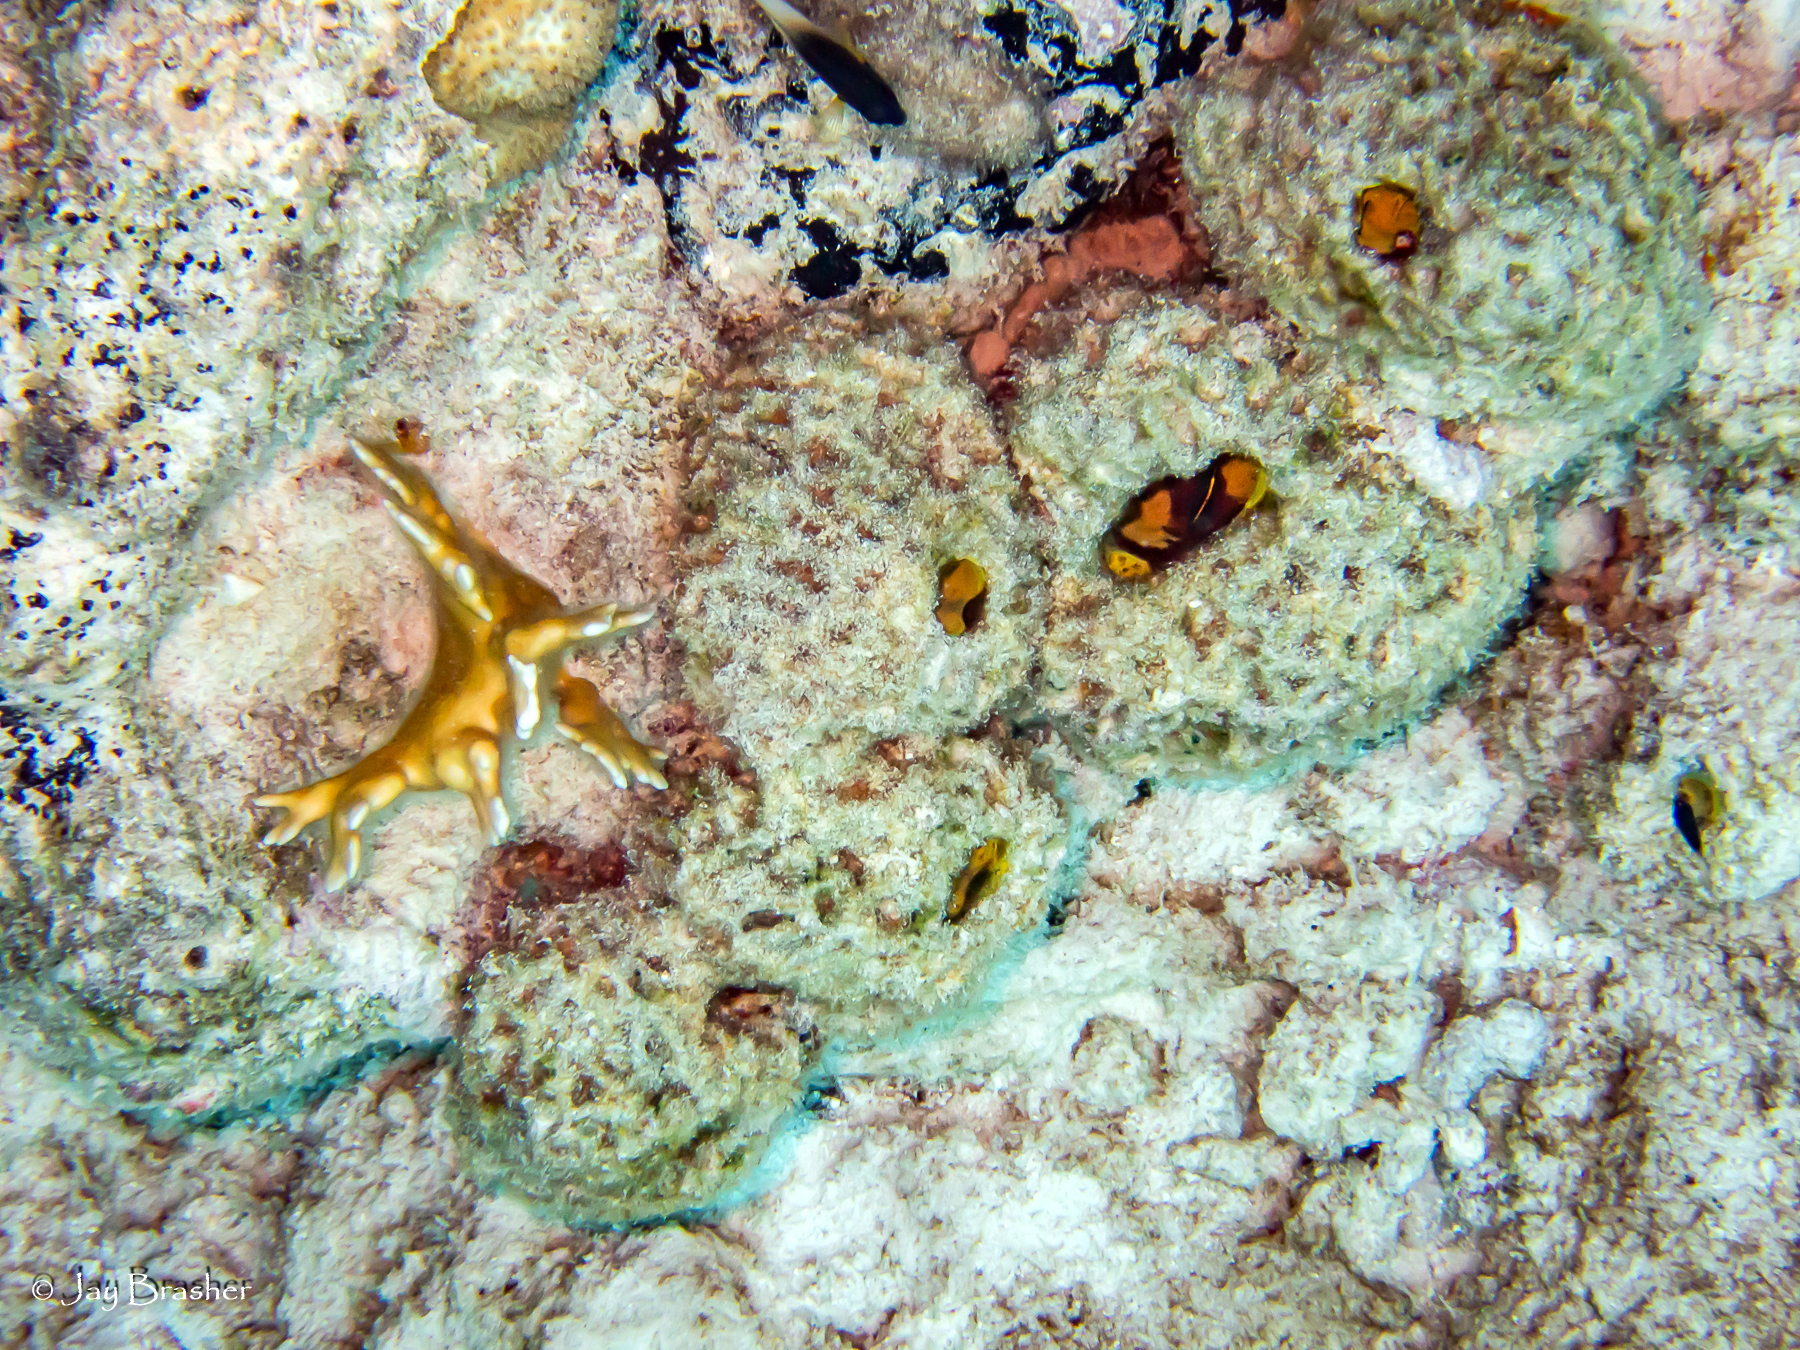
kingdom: Animalia
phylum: Porifera
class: Demospongiae
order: Clionaida
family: Clionaidae
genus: Cliona
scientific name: Cliona aprica
